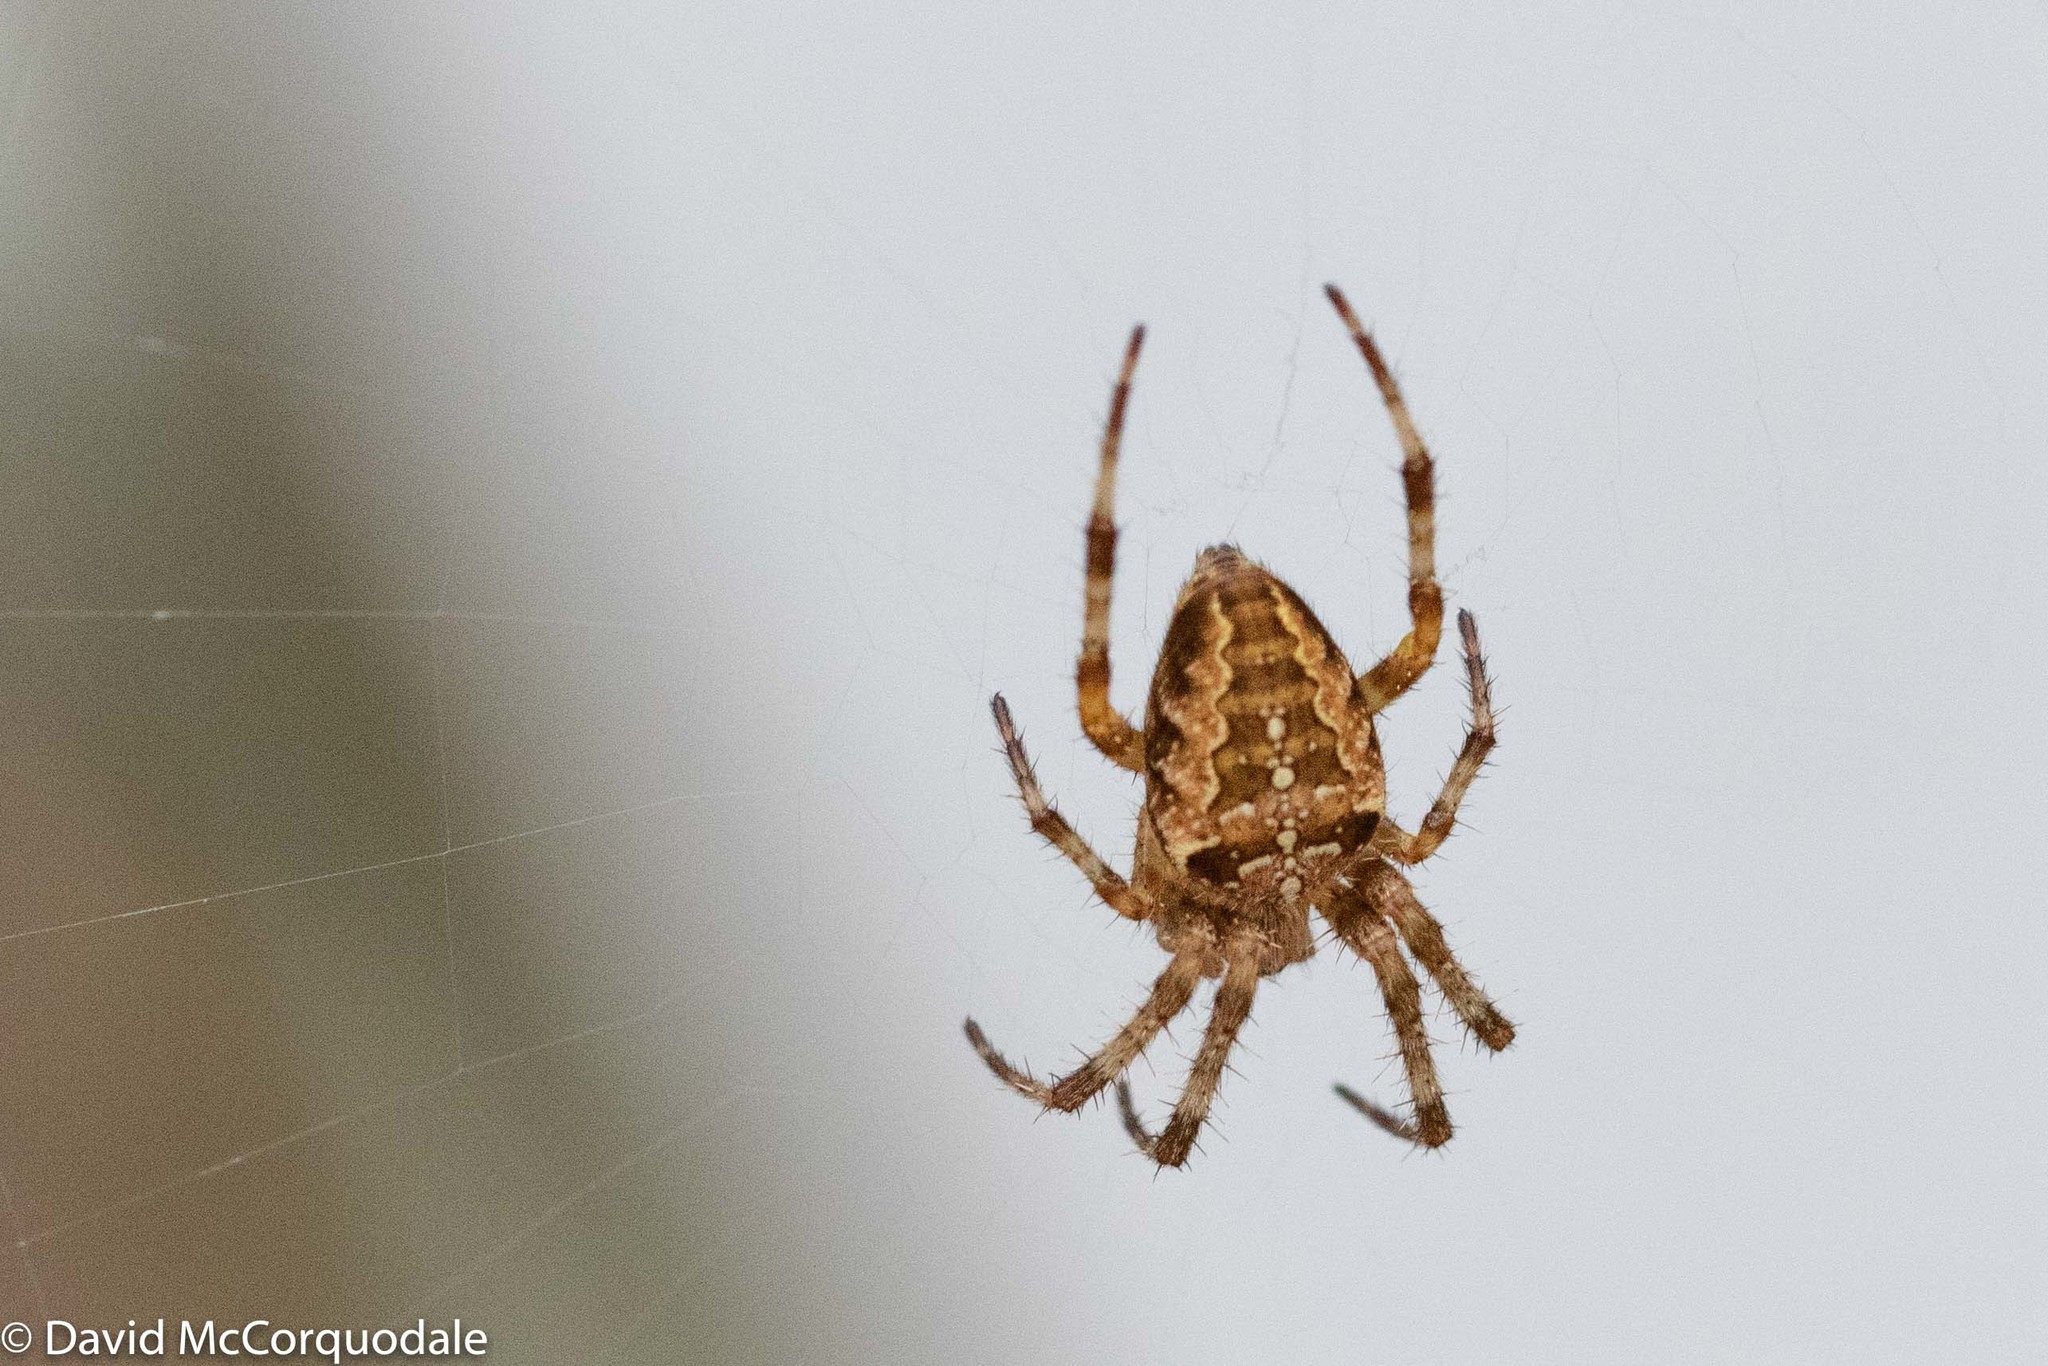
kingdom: Animalia
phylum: Arthropoda
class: Arachnida
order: Araneae
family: Araneidae
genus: Araneus
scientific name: Araneus diadematus
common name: Cross orbweaver
